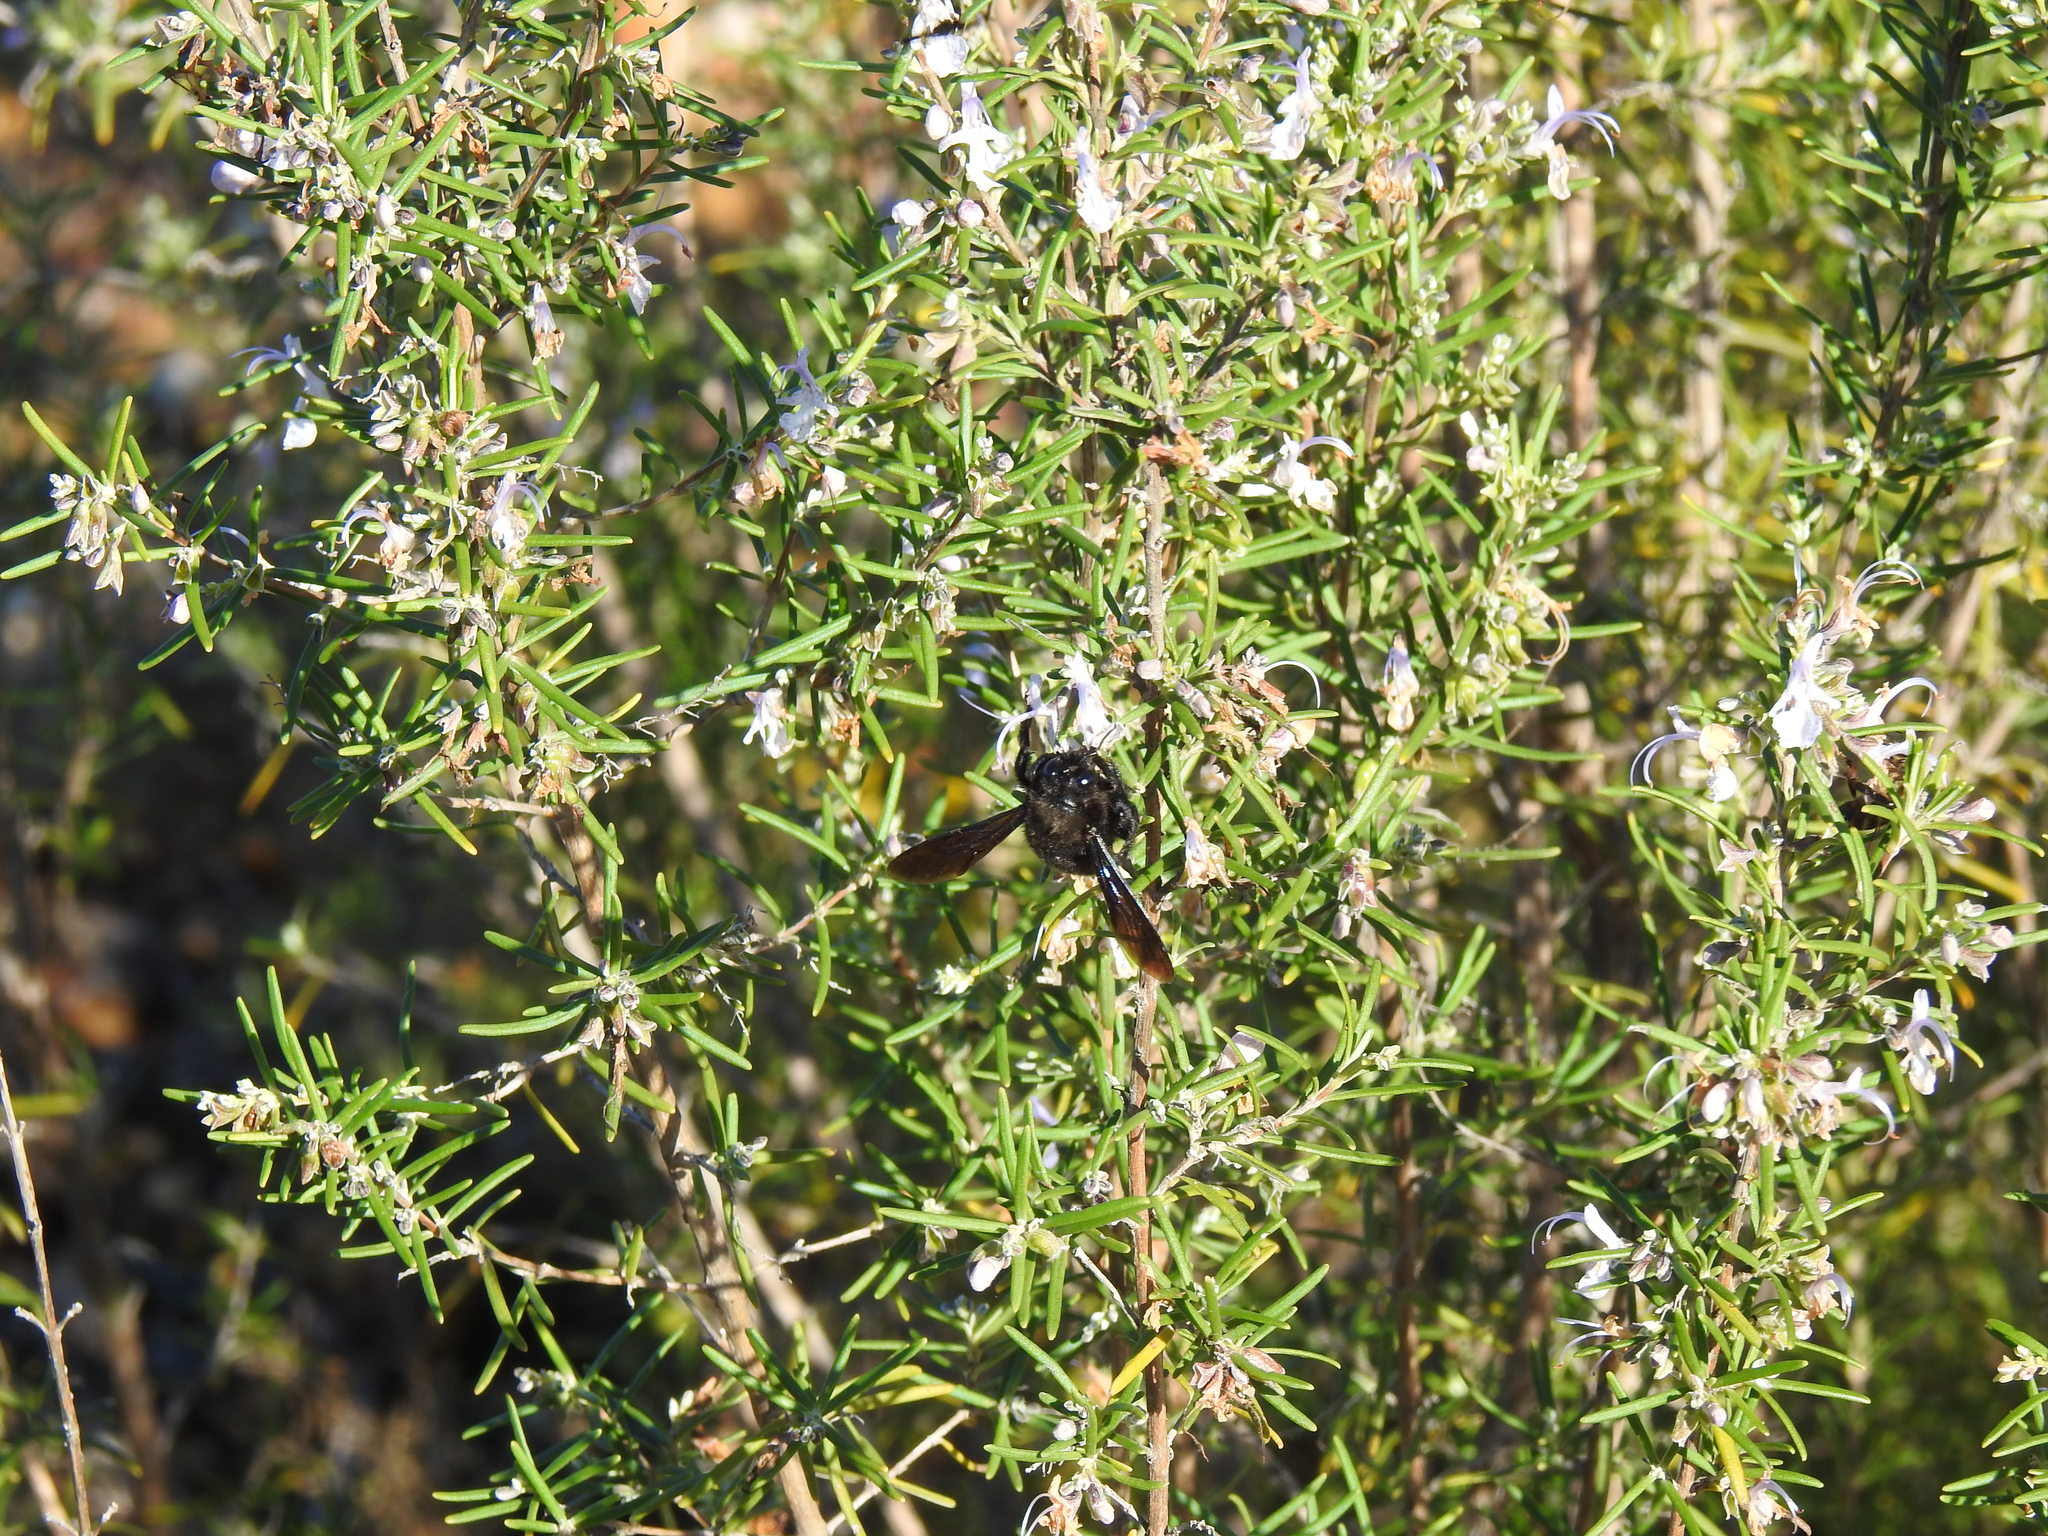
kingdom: Animalia
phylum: Arthropoda
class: Insecta
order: Hymenoptera
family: Apidae
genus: Xylocopa
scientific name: Xylocopa violacea
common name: Violet carpenter bee
